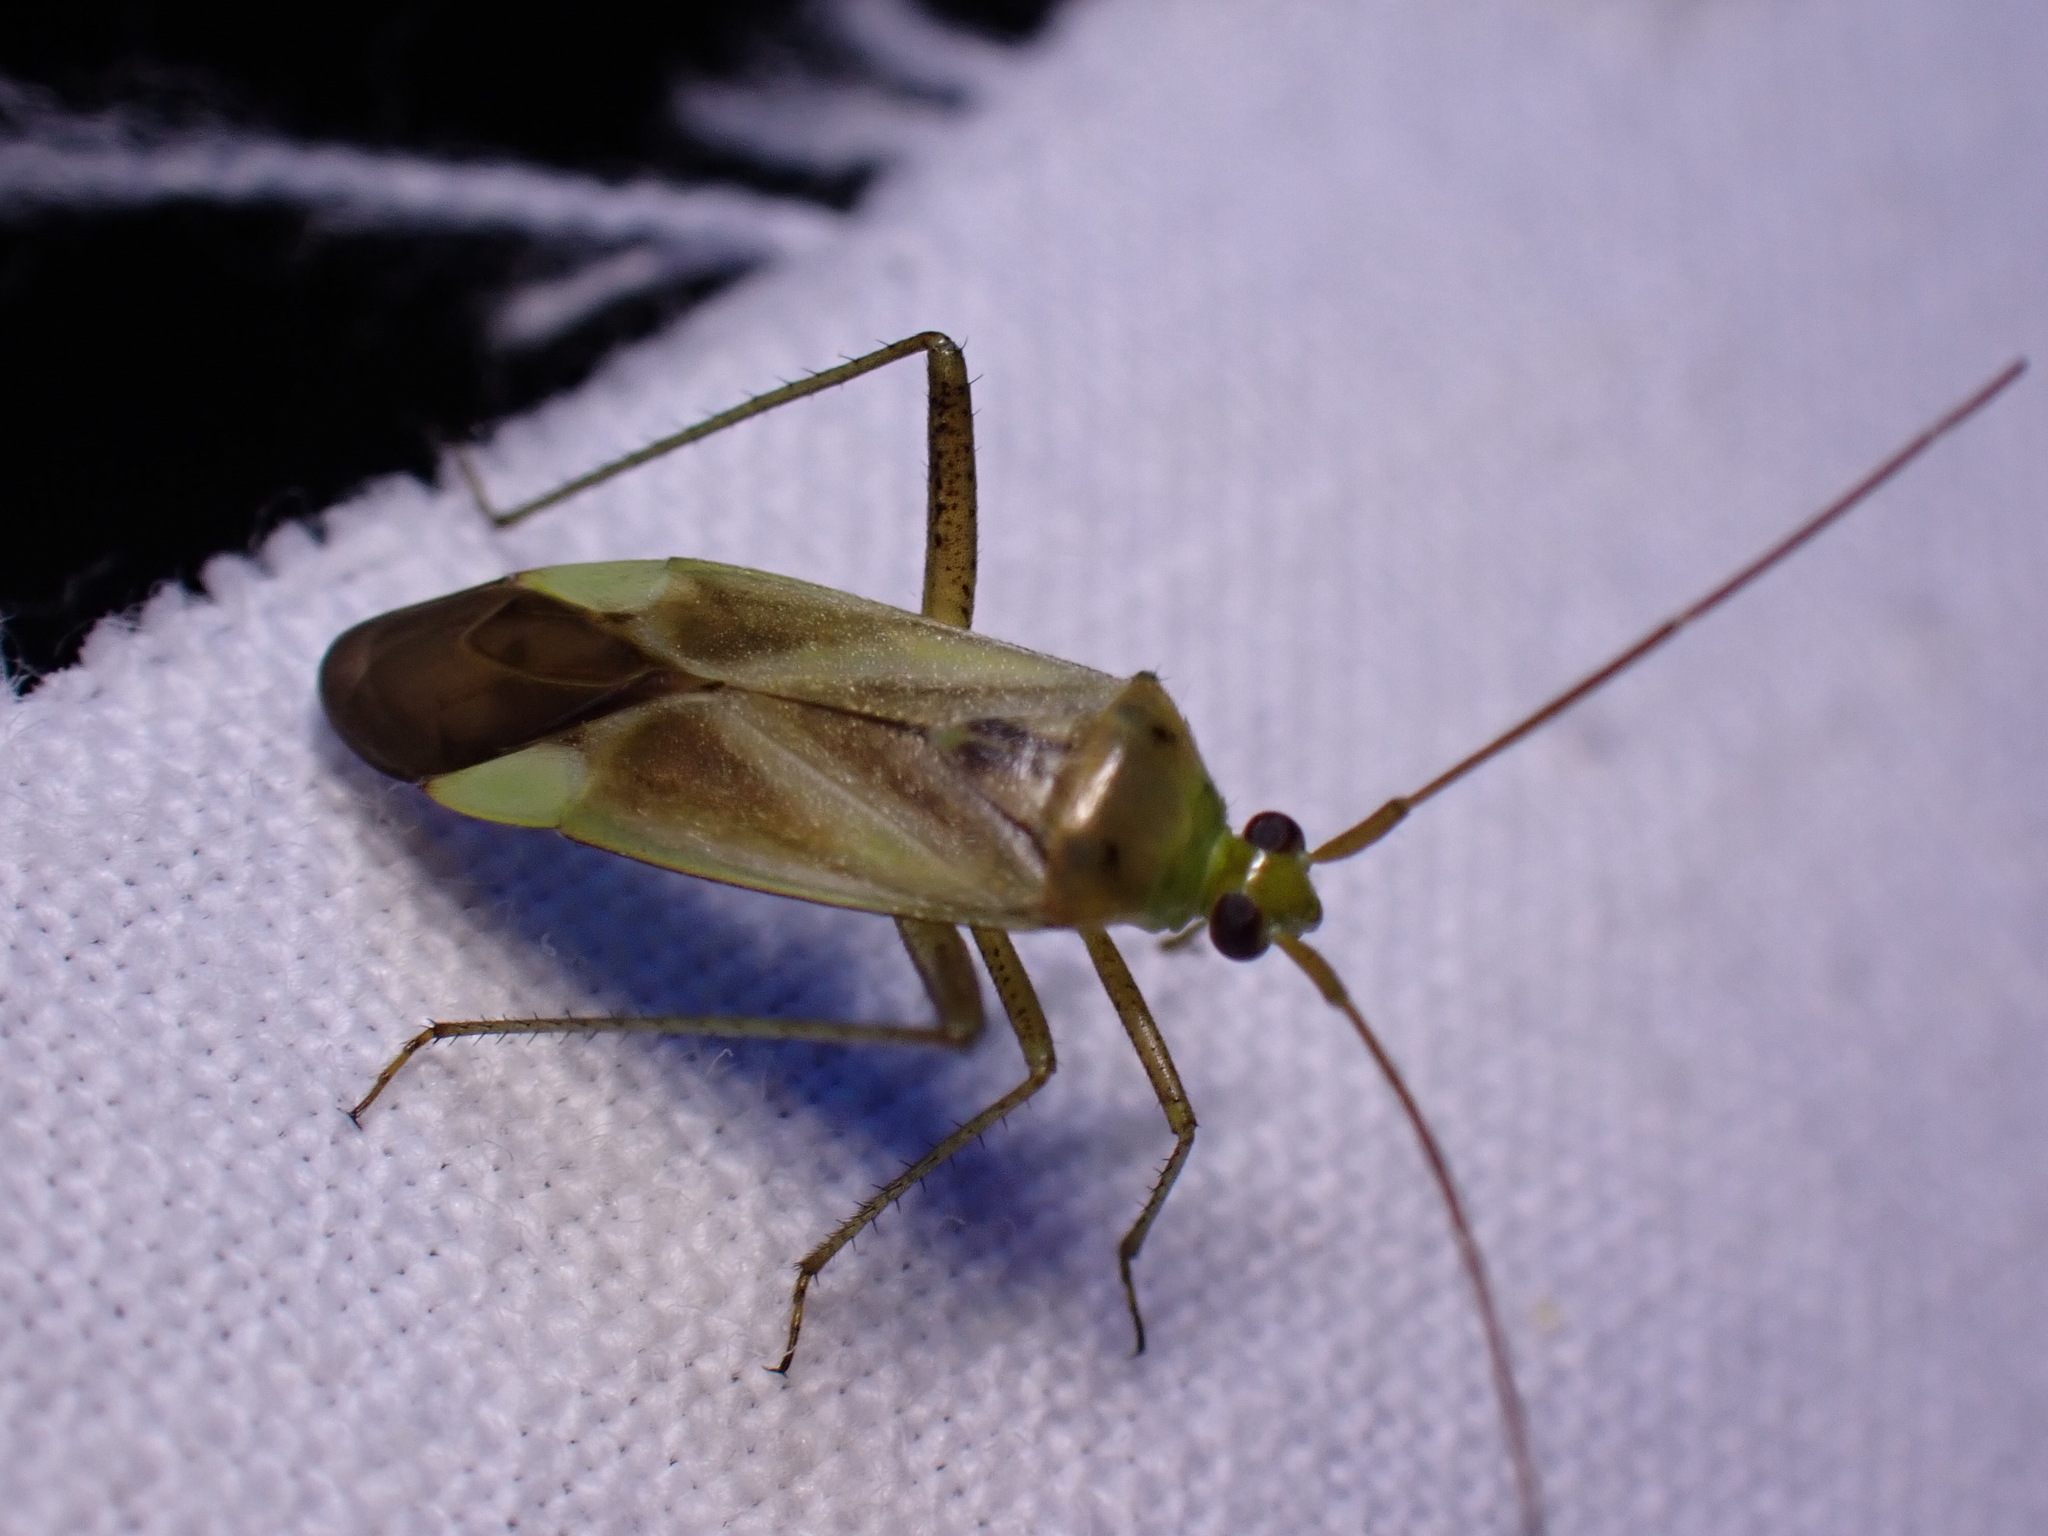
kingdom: Animalia
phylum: Arthropoda
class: Insecta
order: Hemiptera
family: Miridae
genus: Adelphocoris
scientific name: Adelphocoris lineolatus
